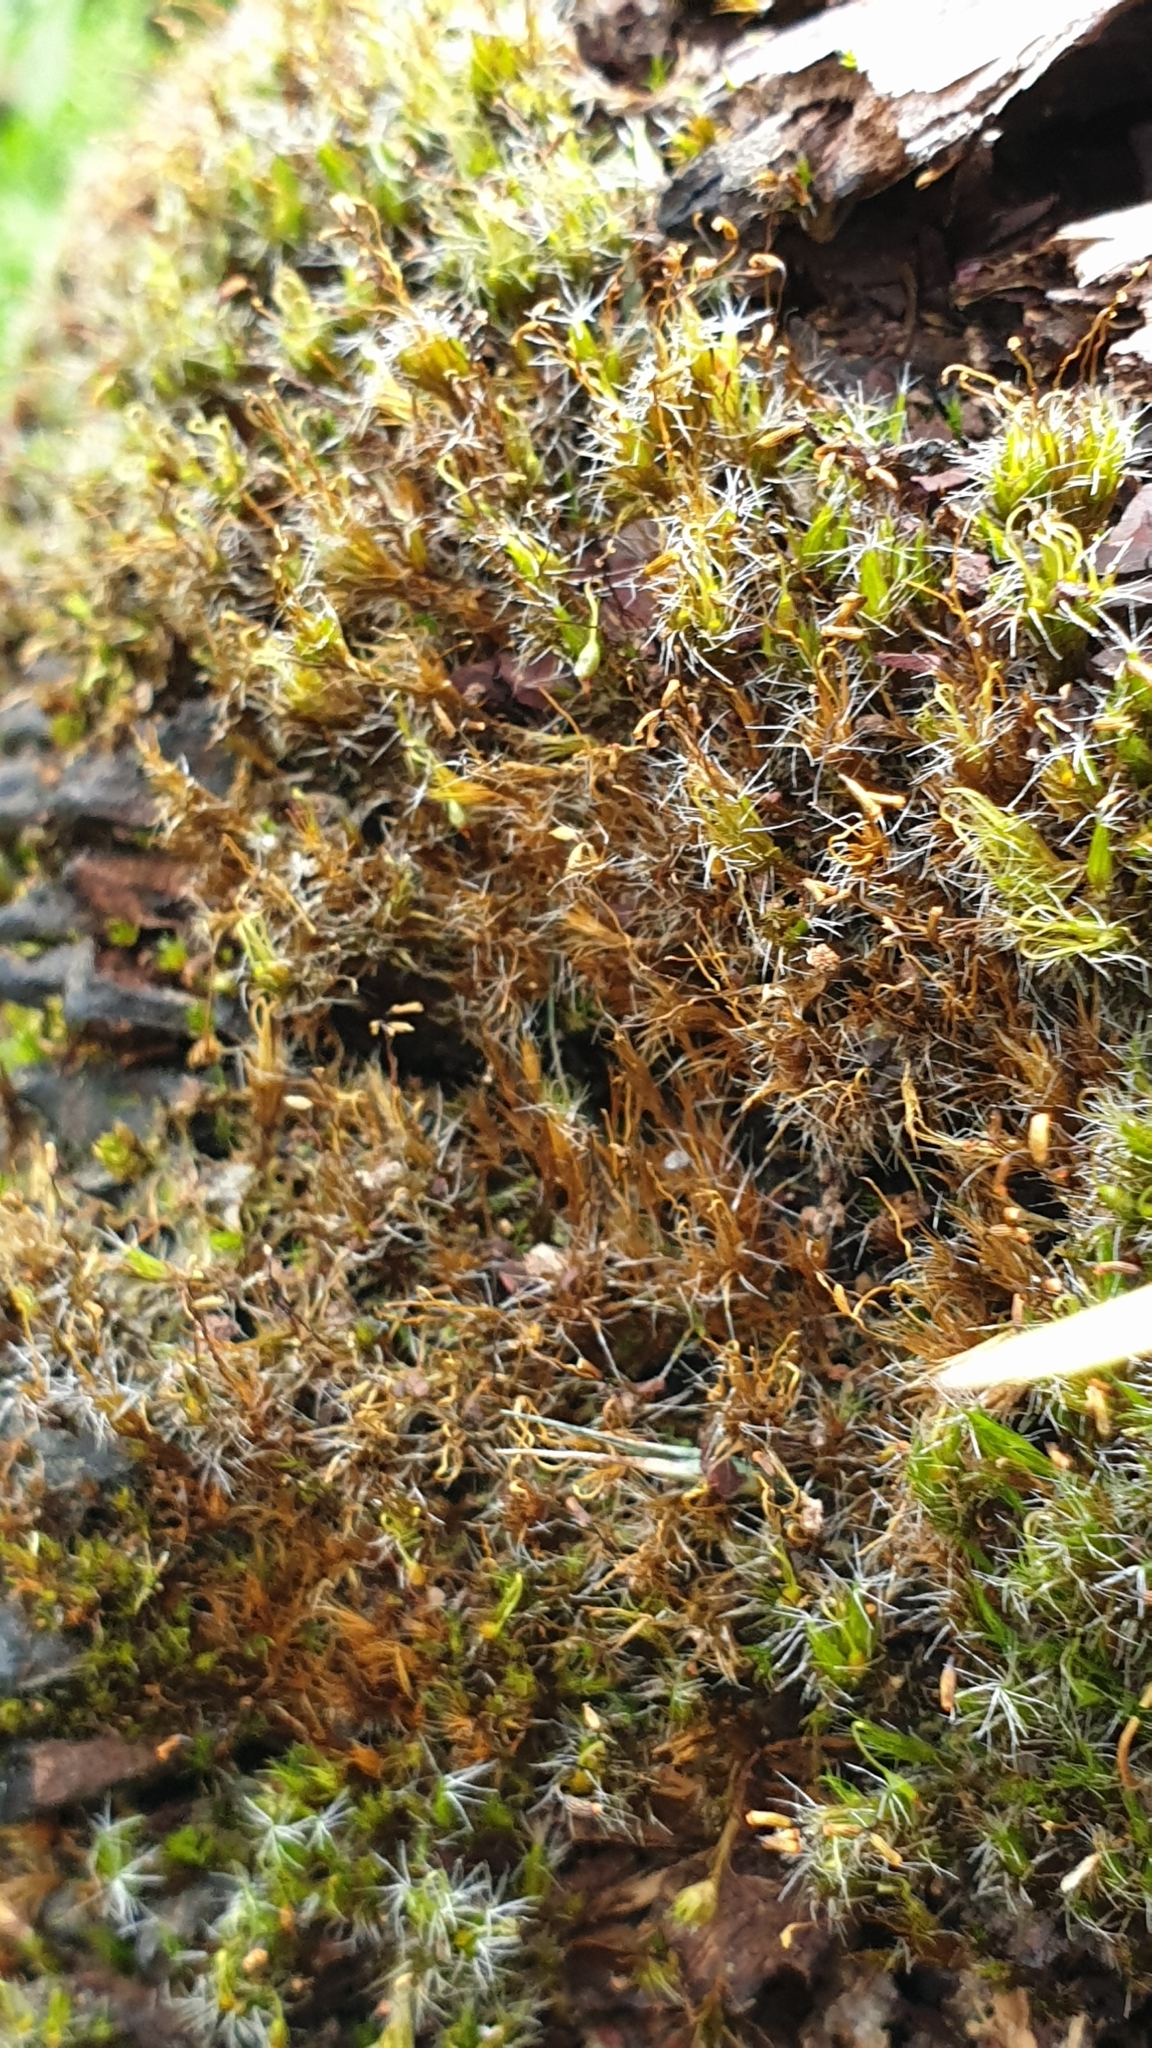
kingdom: Plantae
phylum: Bryophyta
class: Bryopsida
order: Dicranales
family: Leucobryaceae
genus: Campylopus
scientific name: Campylopus introflexus
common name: Heath star moss
